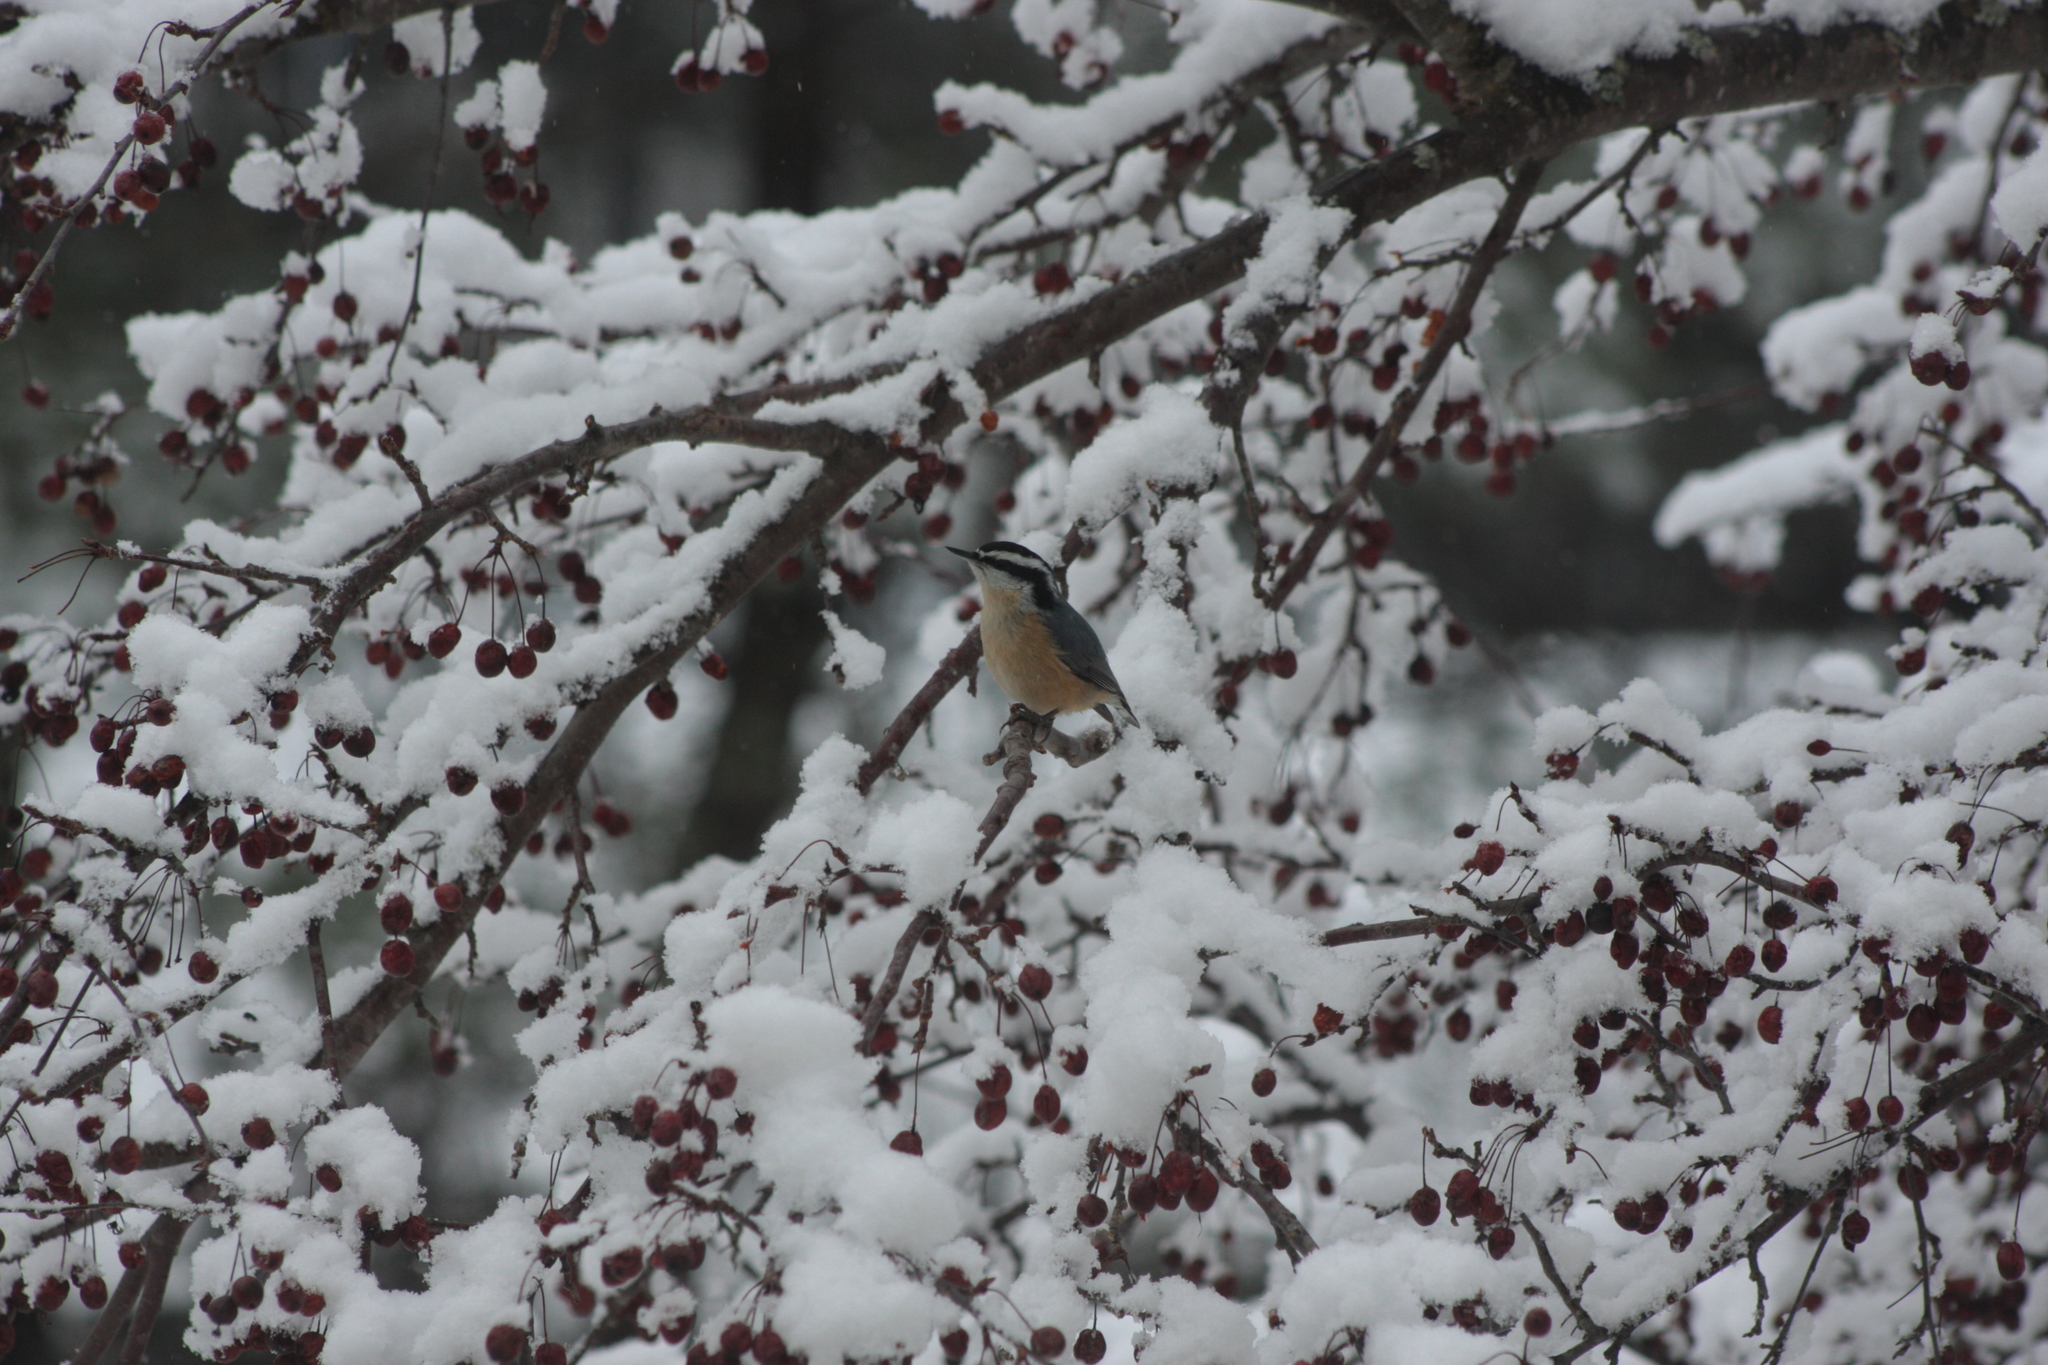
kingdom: Animalia
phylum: Chordata
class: Aves
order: Passeriformes
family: Sittidae
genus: Sitta
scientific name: Sitta canadensis
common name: Red-breasted nuthatch
